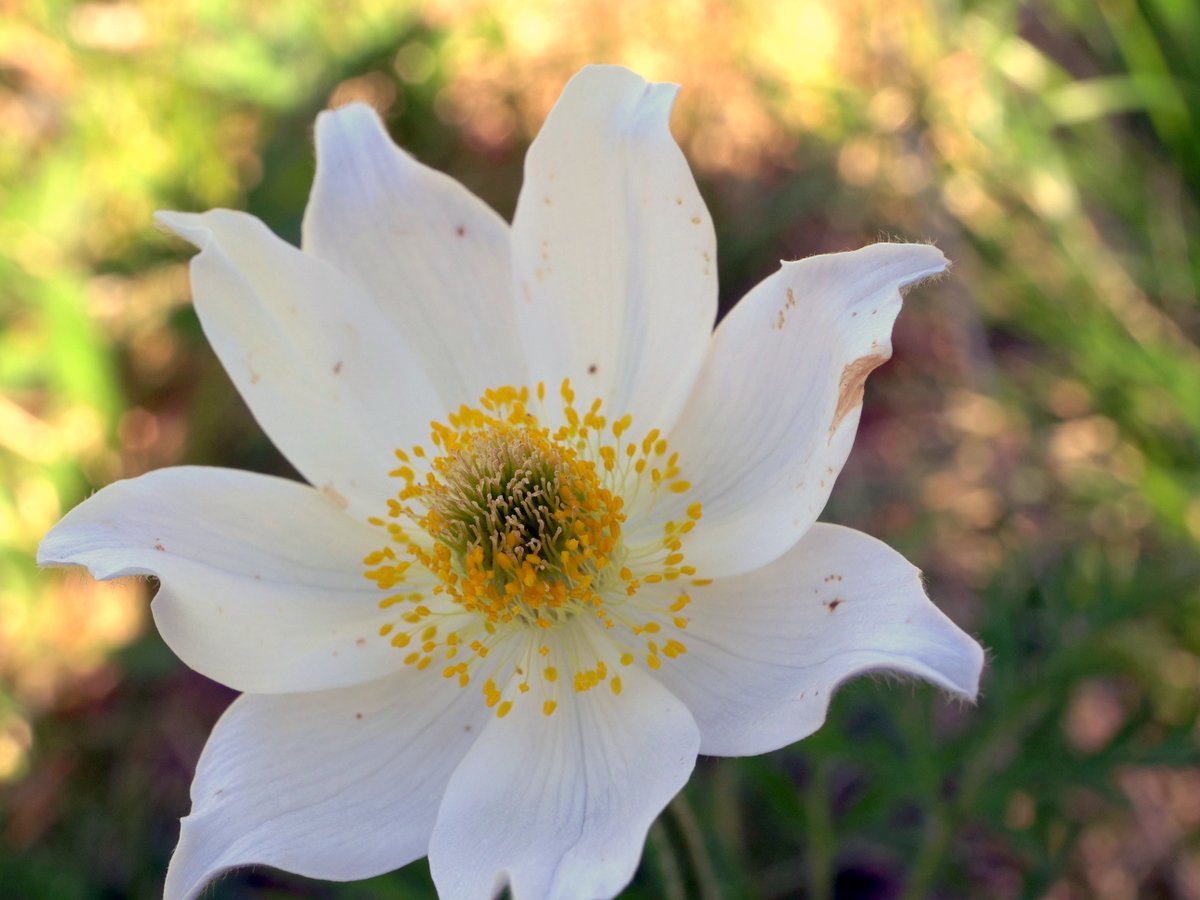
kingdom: Plantae
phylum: Tracheophyta
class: Magnoliopsida
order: Ranunculales
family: Ranunculaceae
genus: Pulsatilla
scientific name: Pulsatilla alpina
